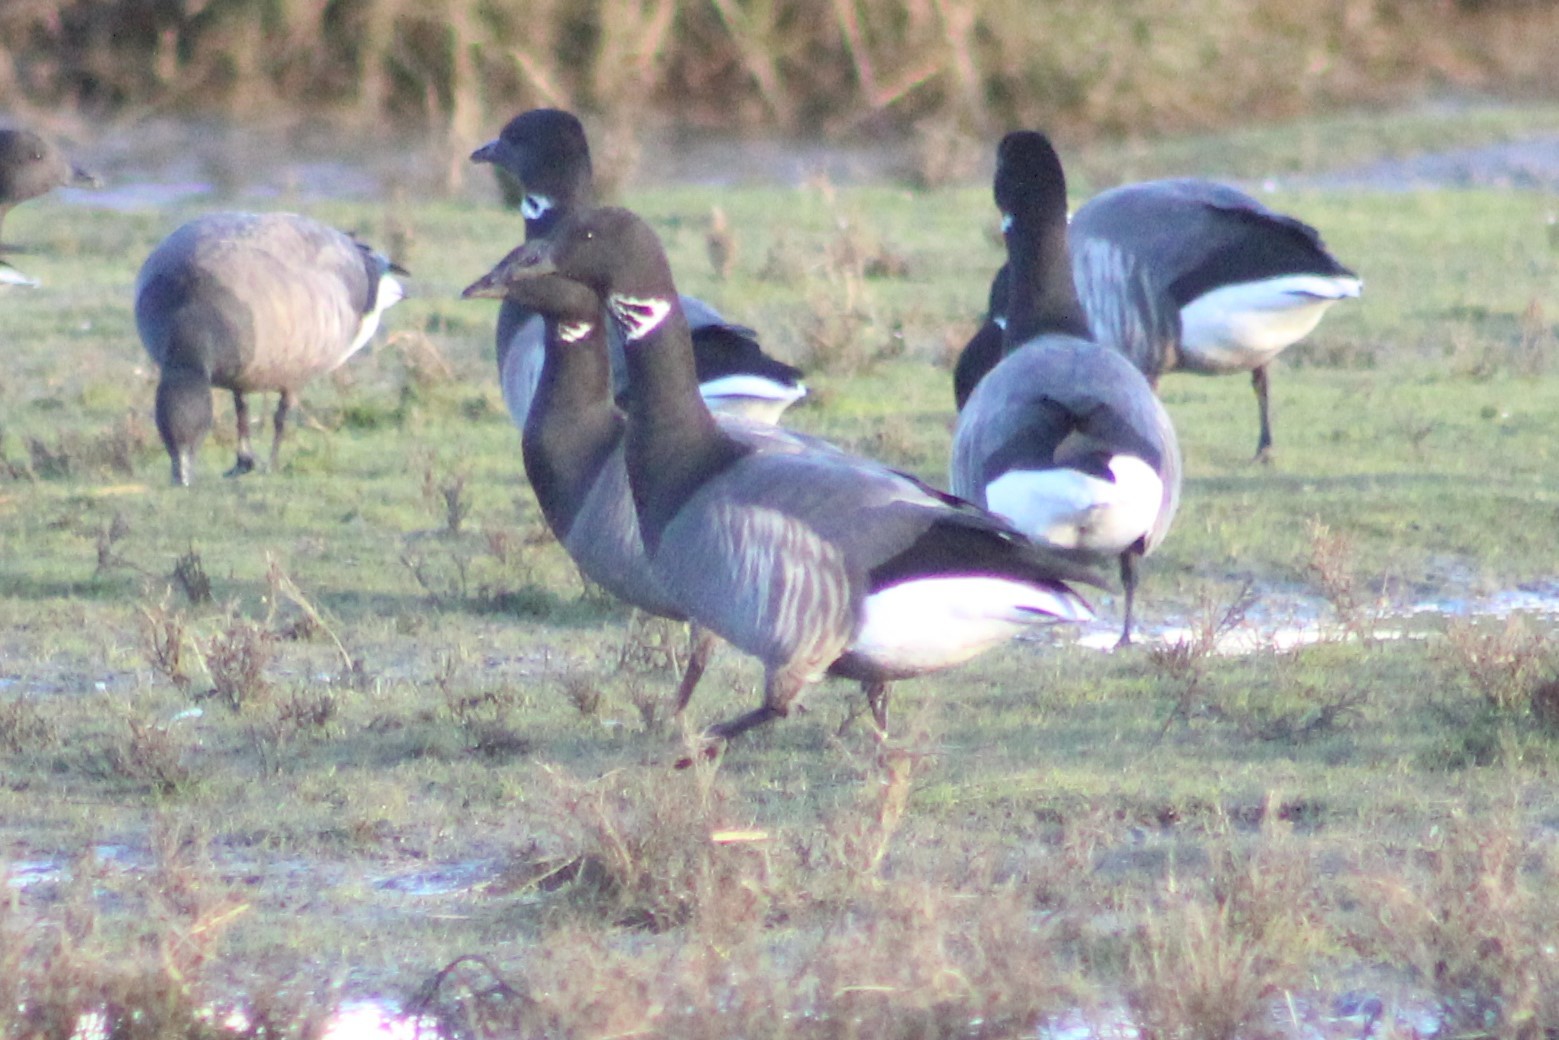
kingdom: Animalia
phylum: Chordata
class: Aves
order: Anseriformes
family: Anatidae
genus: Branta
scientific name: Branta bernicla
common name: Brant goose
